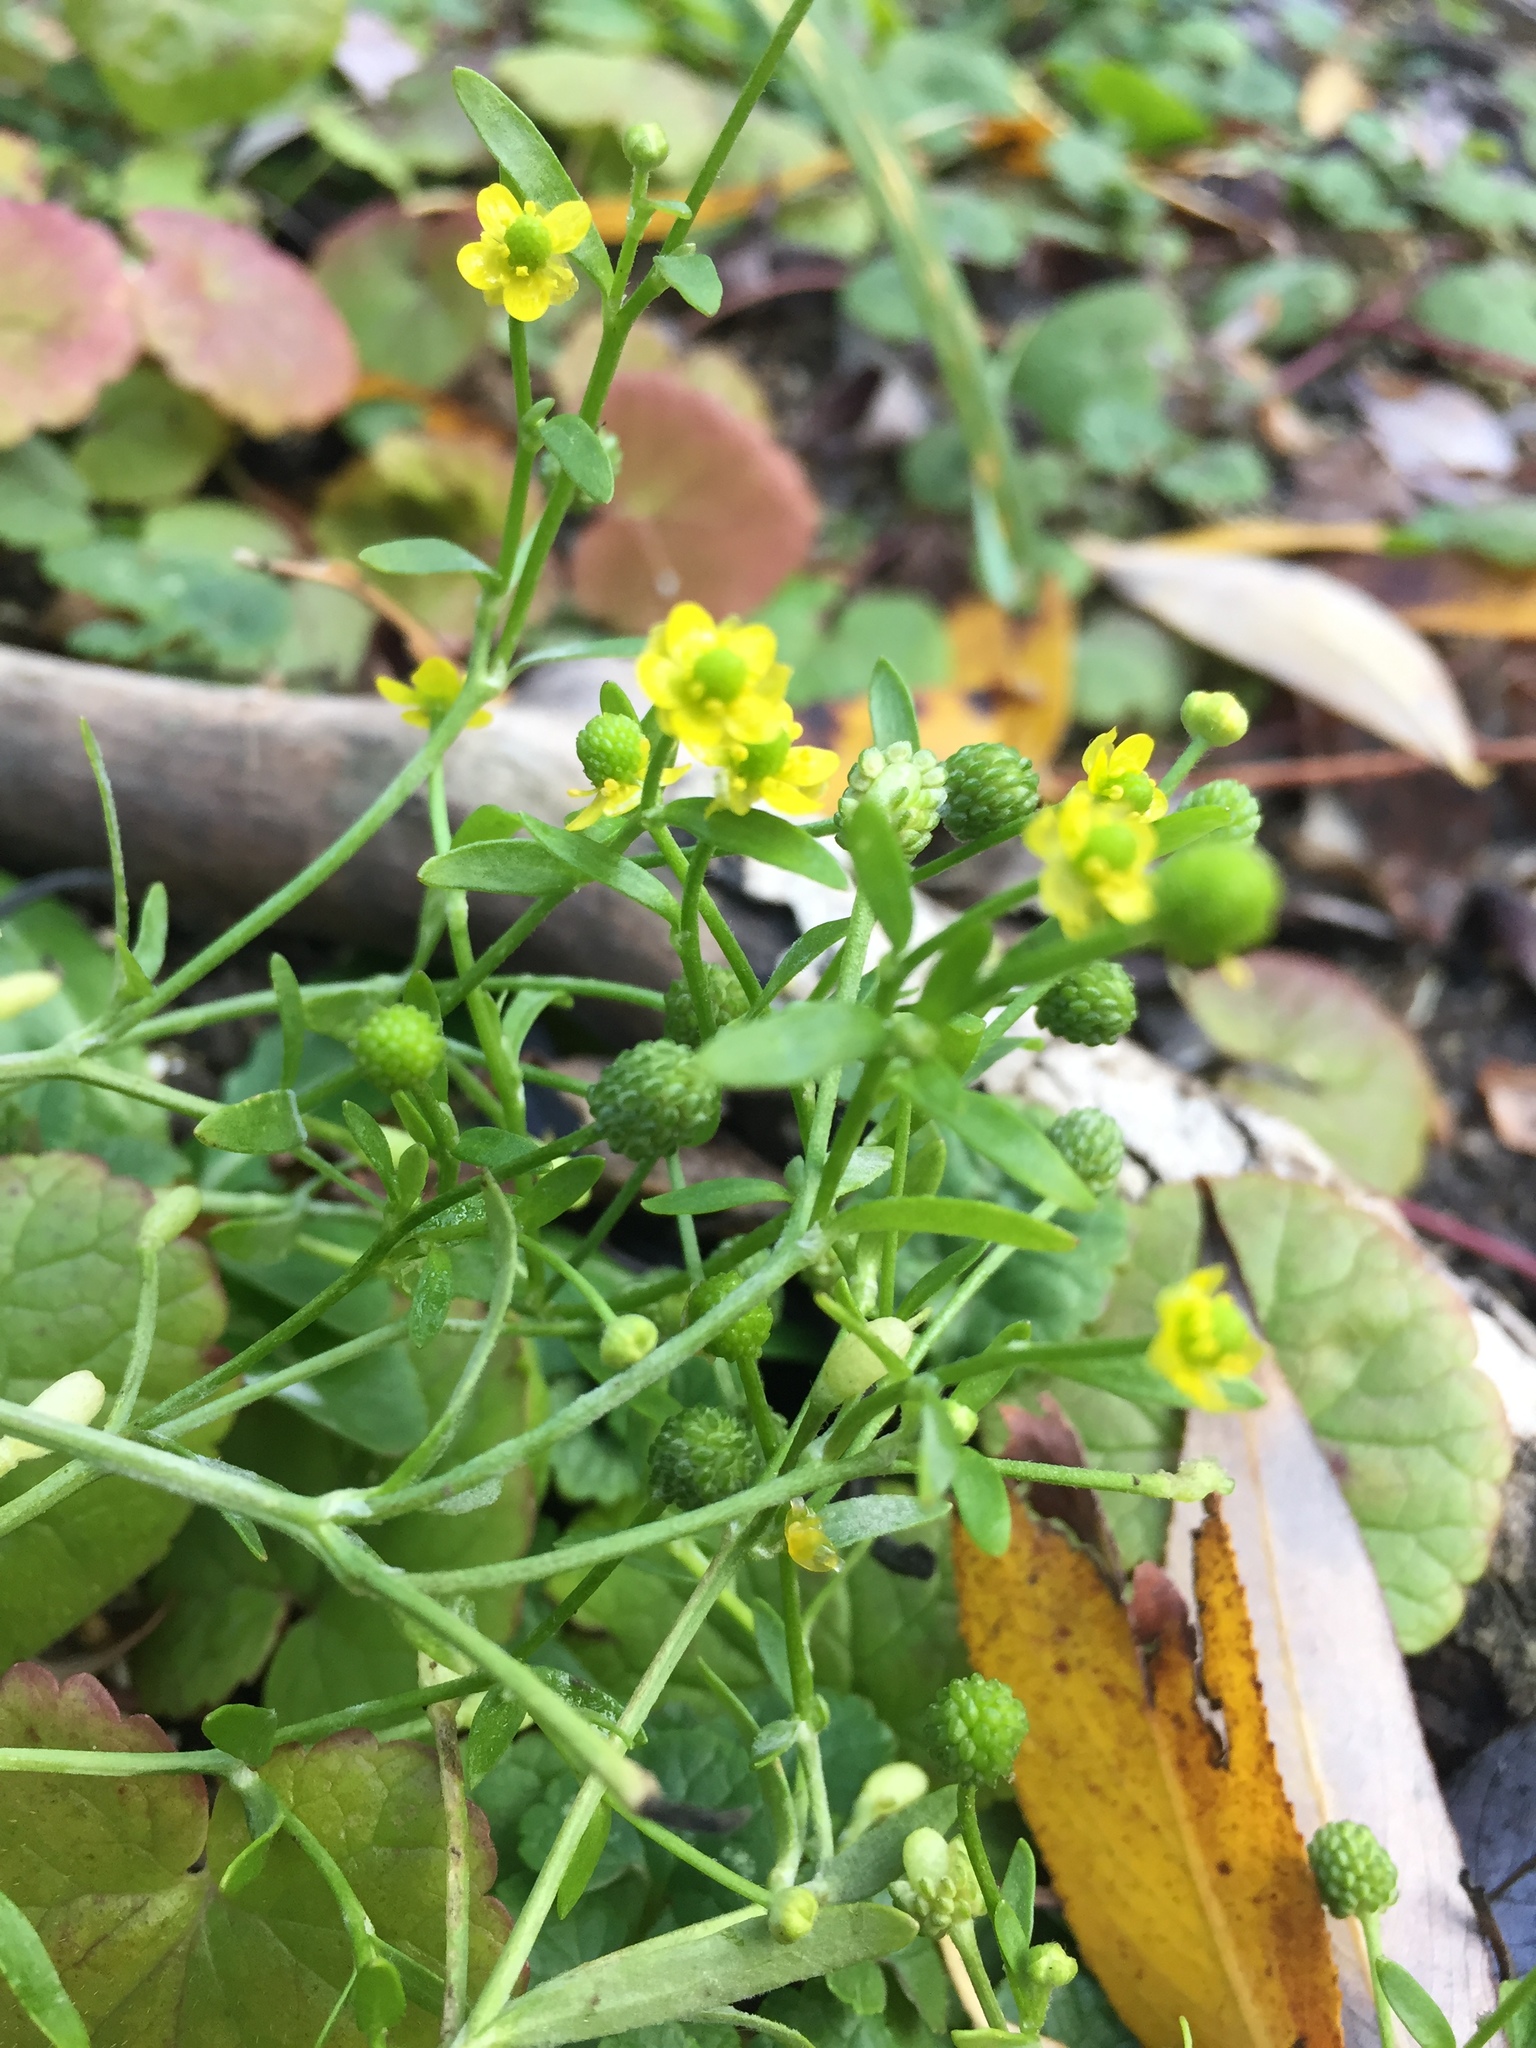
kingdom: Plantae
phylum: Tracheophyta
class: Magnoliopsida
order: Ranunculales
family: Ranunculaceae
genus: Ranunculus
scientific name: Ranunculus sceleratus
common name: Celery-leaved buttercup
